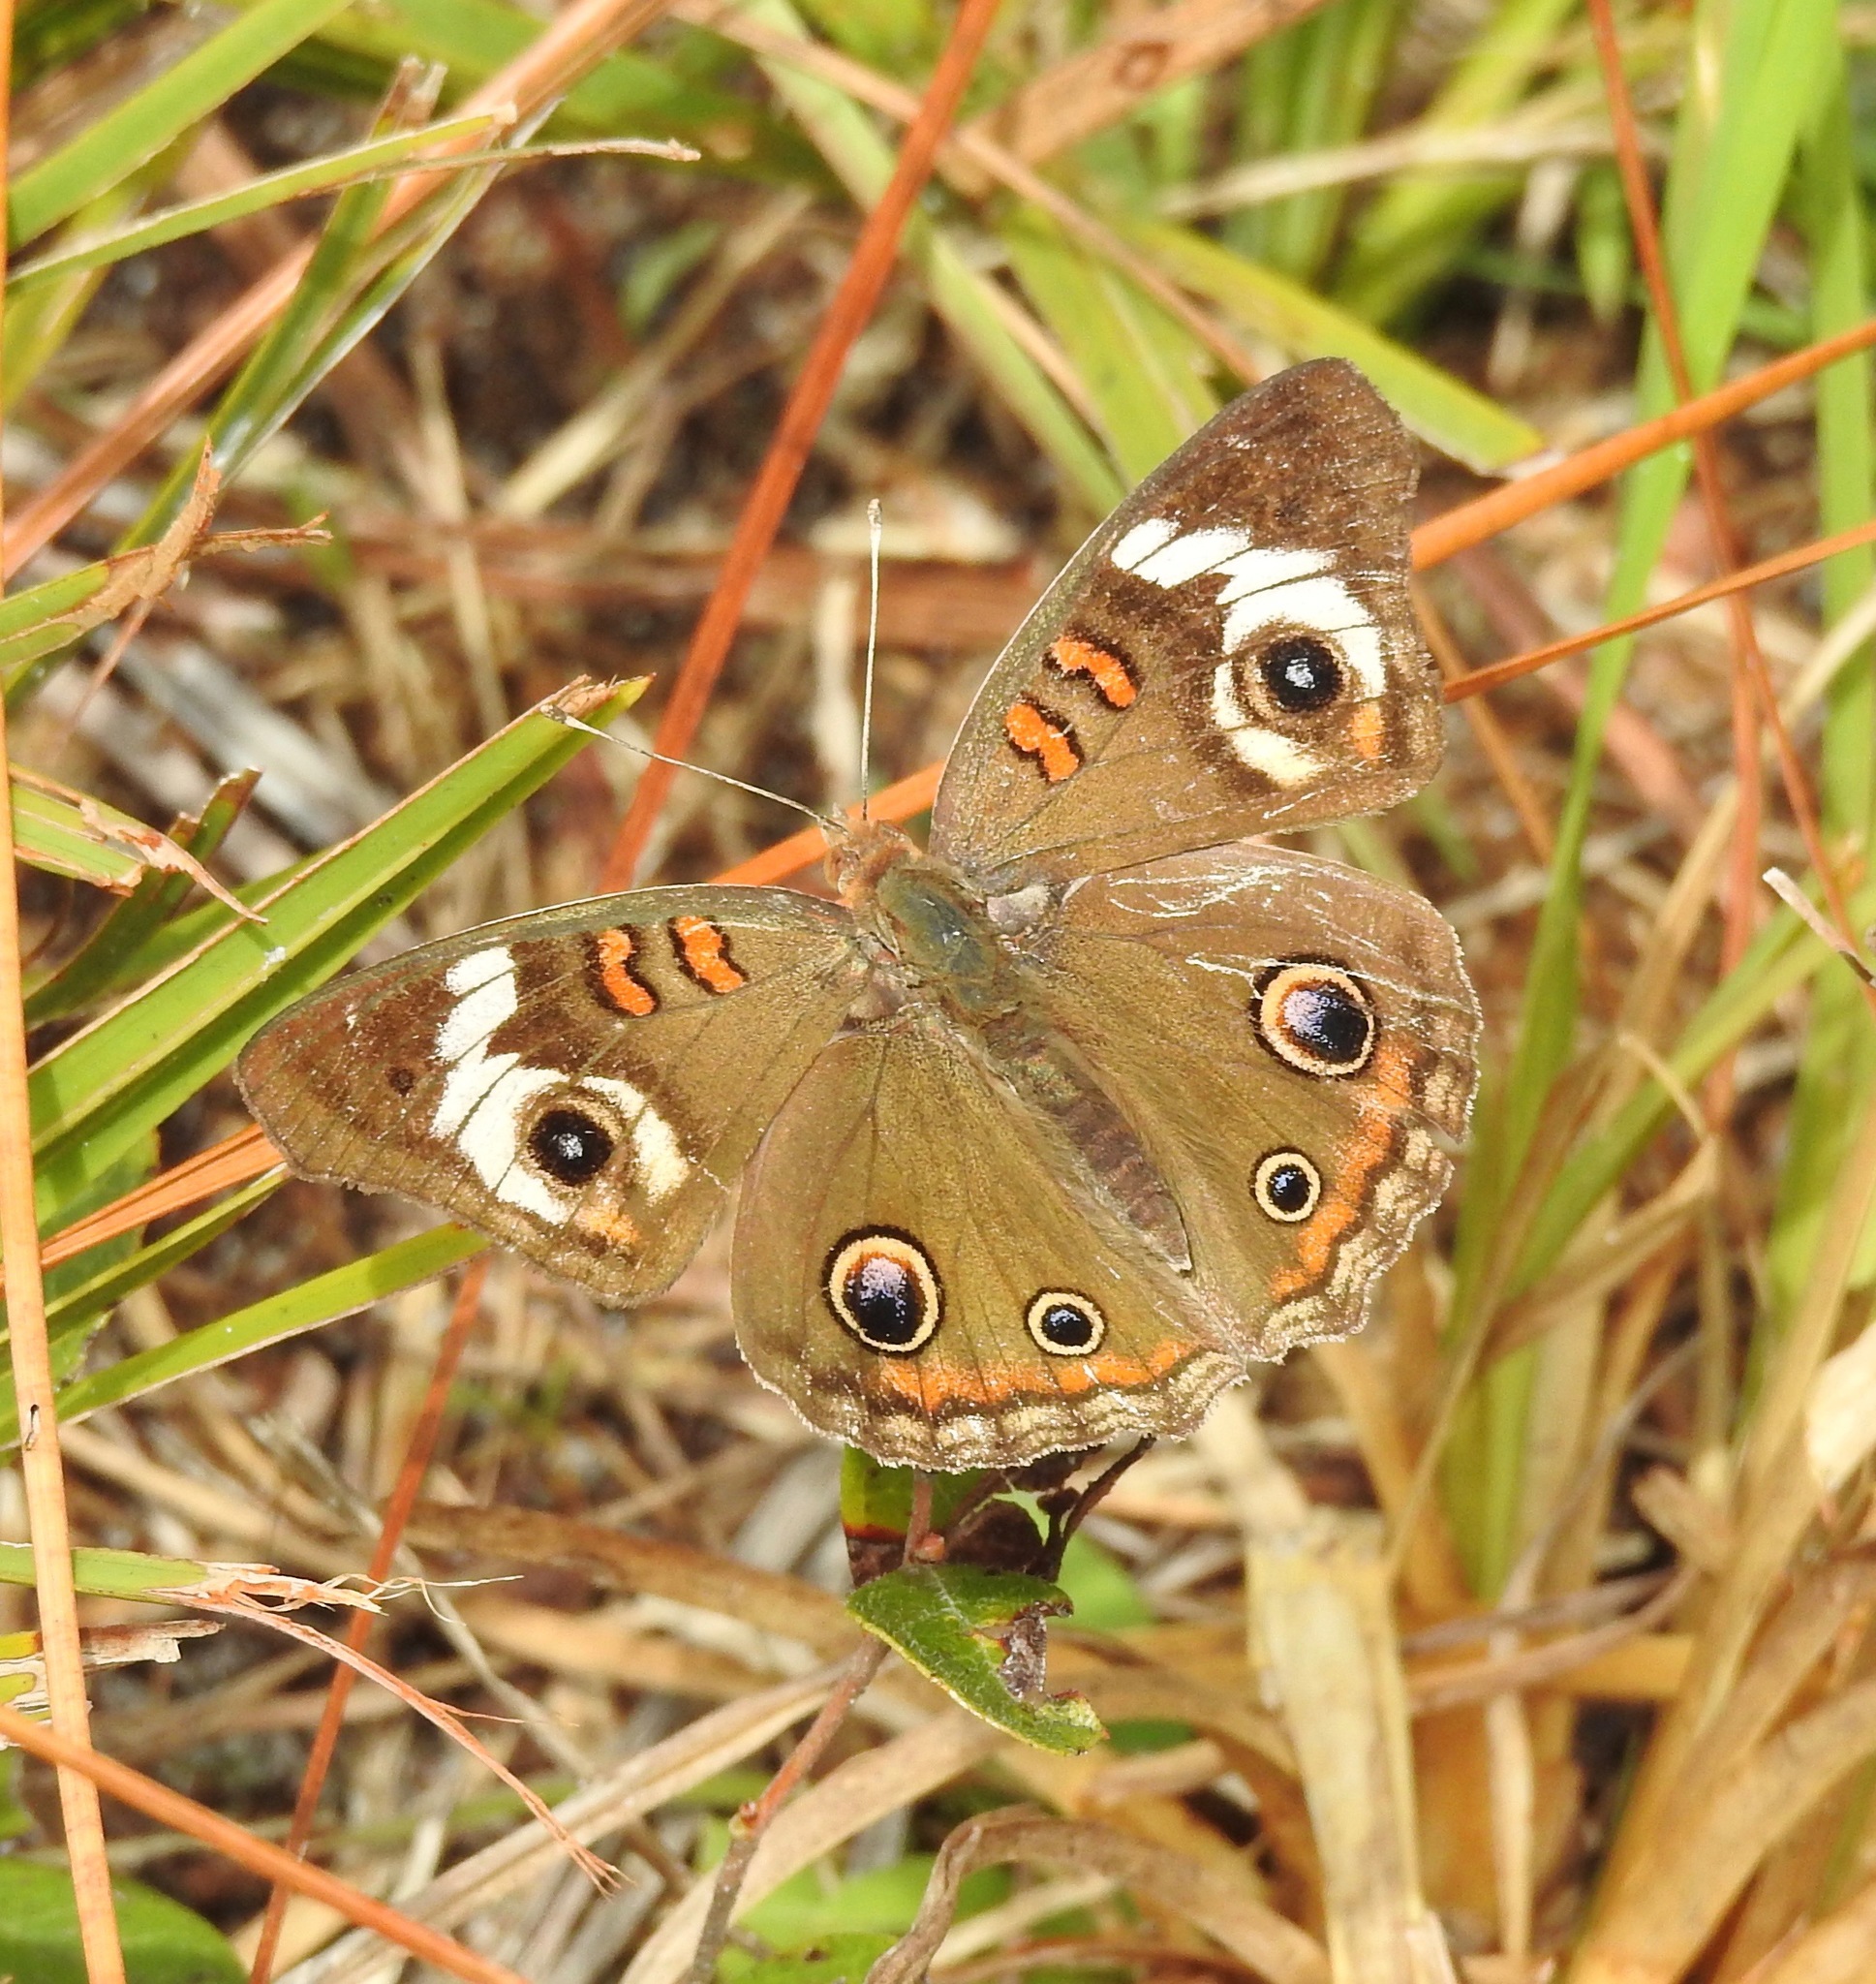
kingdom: Animalia
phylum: Arthropoda
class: Insecta
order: Lepidoptera
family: Nymphalidae
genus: Junonia
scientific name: Junonia coenia
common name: Common buckeye
